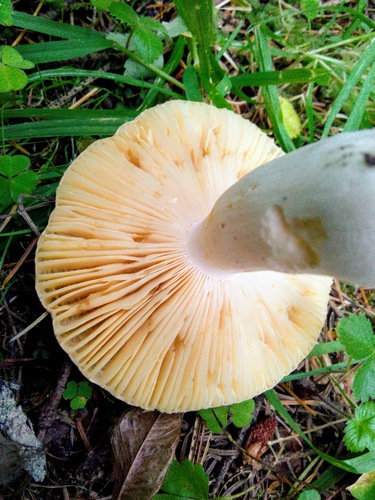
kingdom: Fungi
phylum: Basidiomycota
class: Agaricomycetes
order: Russulales
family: Russulaceae
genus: Russula
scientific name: Russula
